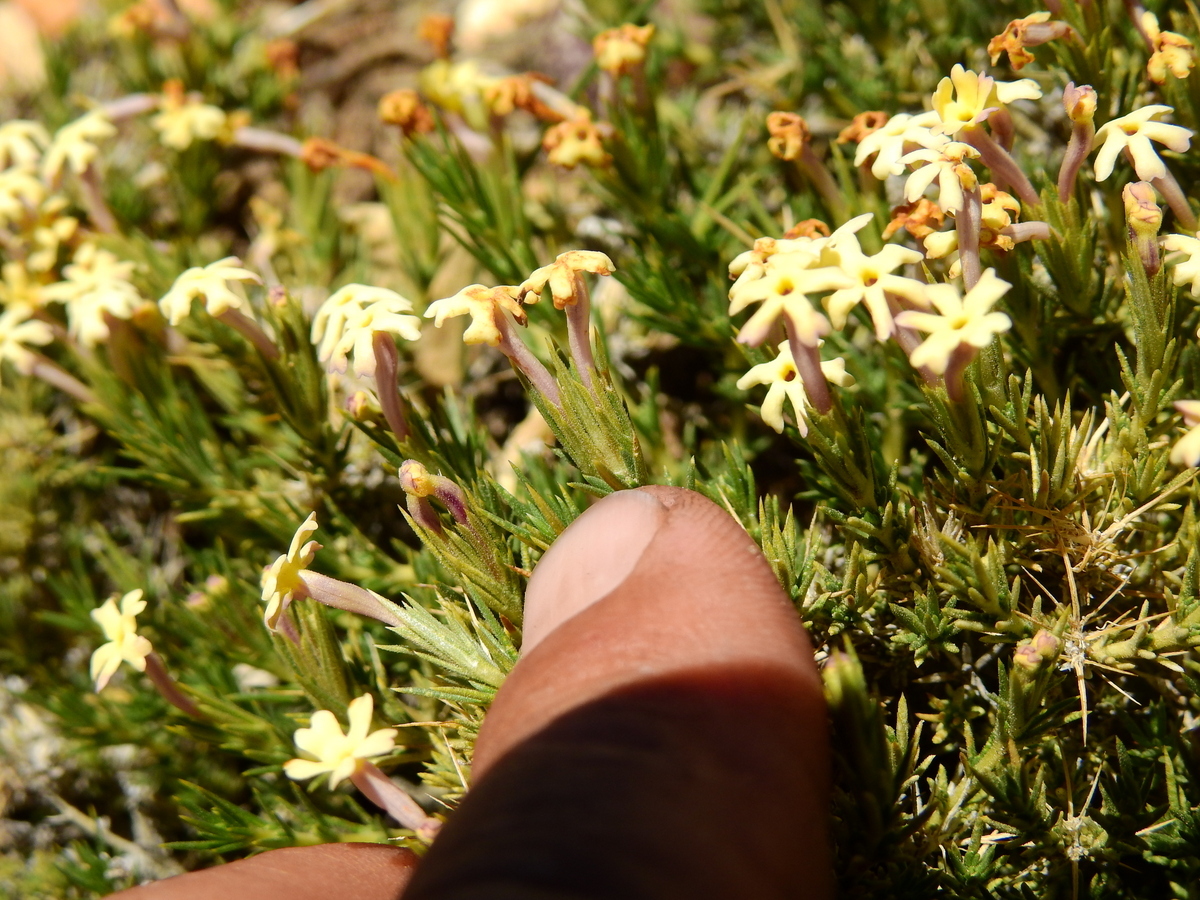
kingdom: Plantae
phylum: Tracheophyta
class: Magnoliopsida
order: Lamiales
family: Verbenaceae
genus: Junellia
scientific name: Junellia ulicina
